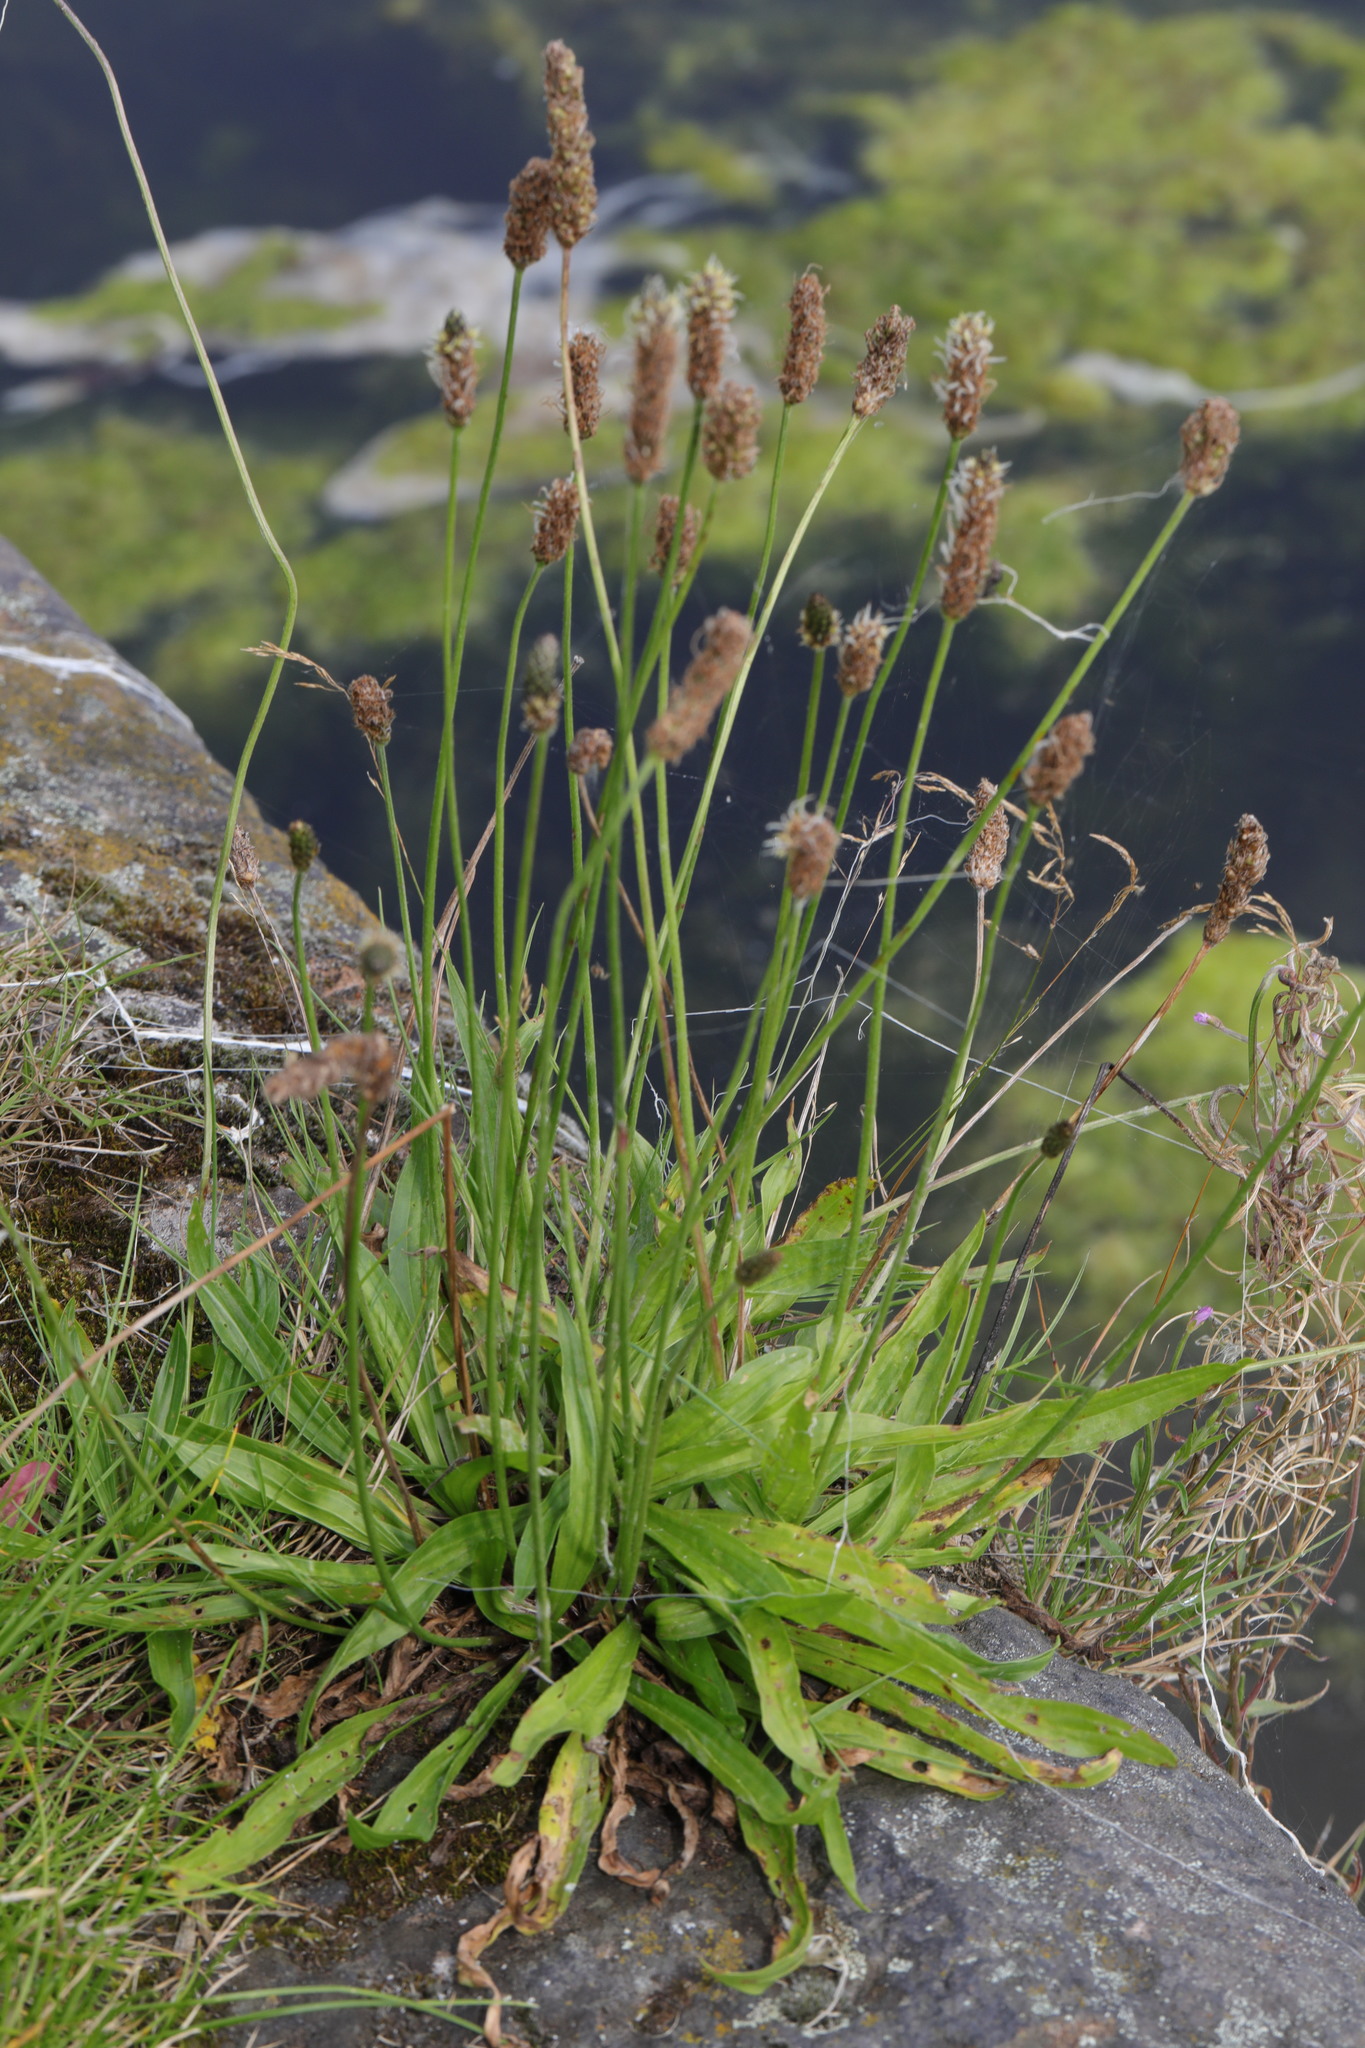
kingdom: Plantae
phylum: Tracheophyta
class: Magnoliopsida
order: Lamiales
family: Plantaginaceae
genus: Plantago
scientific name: Plantago lanceolata
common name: Ribwort plantain
